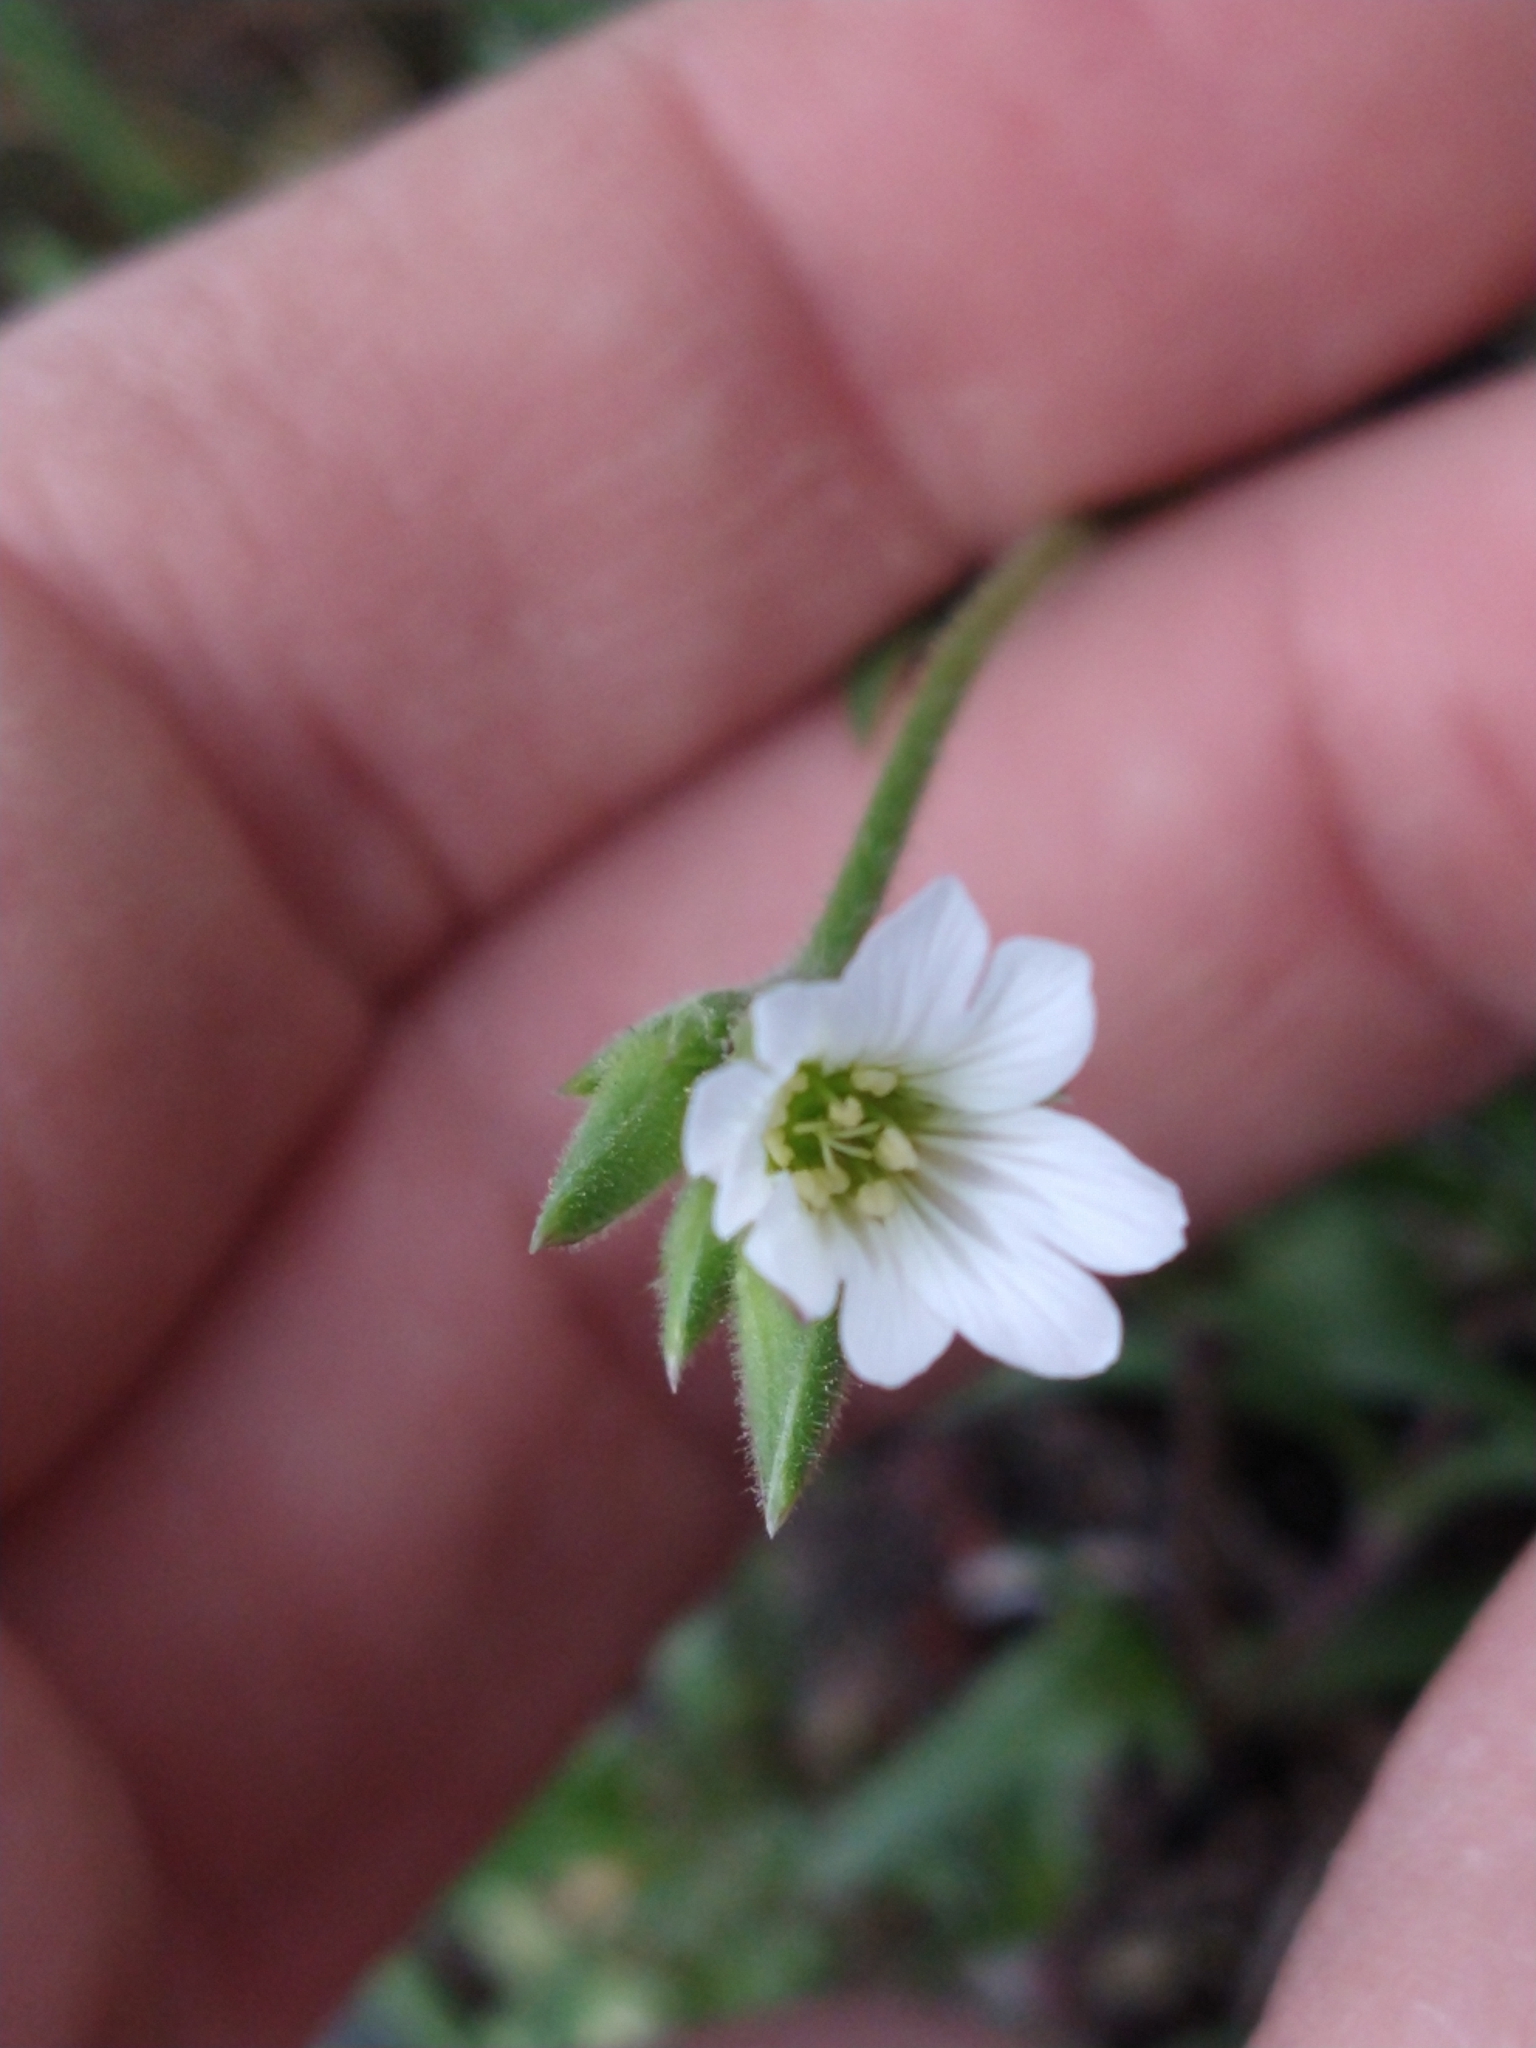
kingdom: Plantae
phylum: Tracheophyta
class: Magnoliopsida
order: Caryophyllales
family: Caryophyllaceae
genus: Cerastium
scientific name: Cerastium arvense
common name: Field mouse-ear
